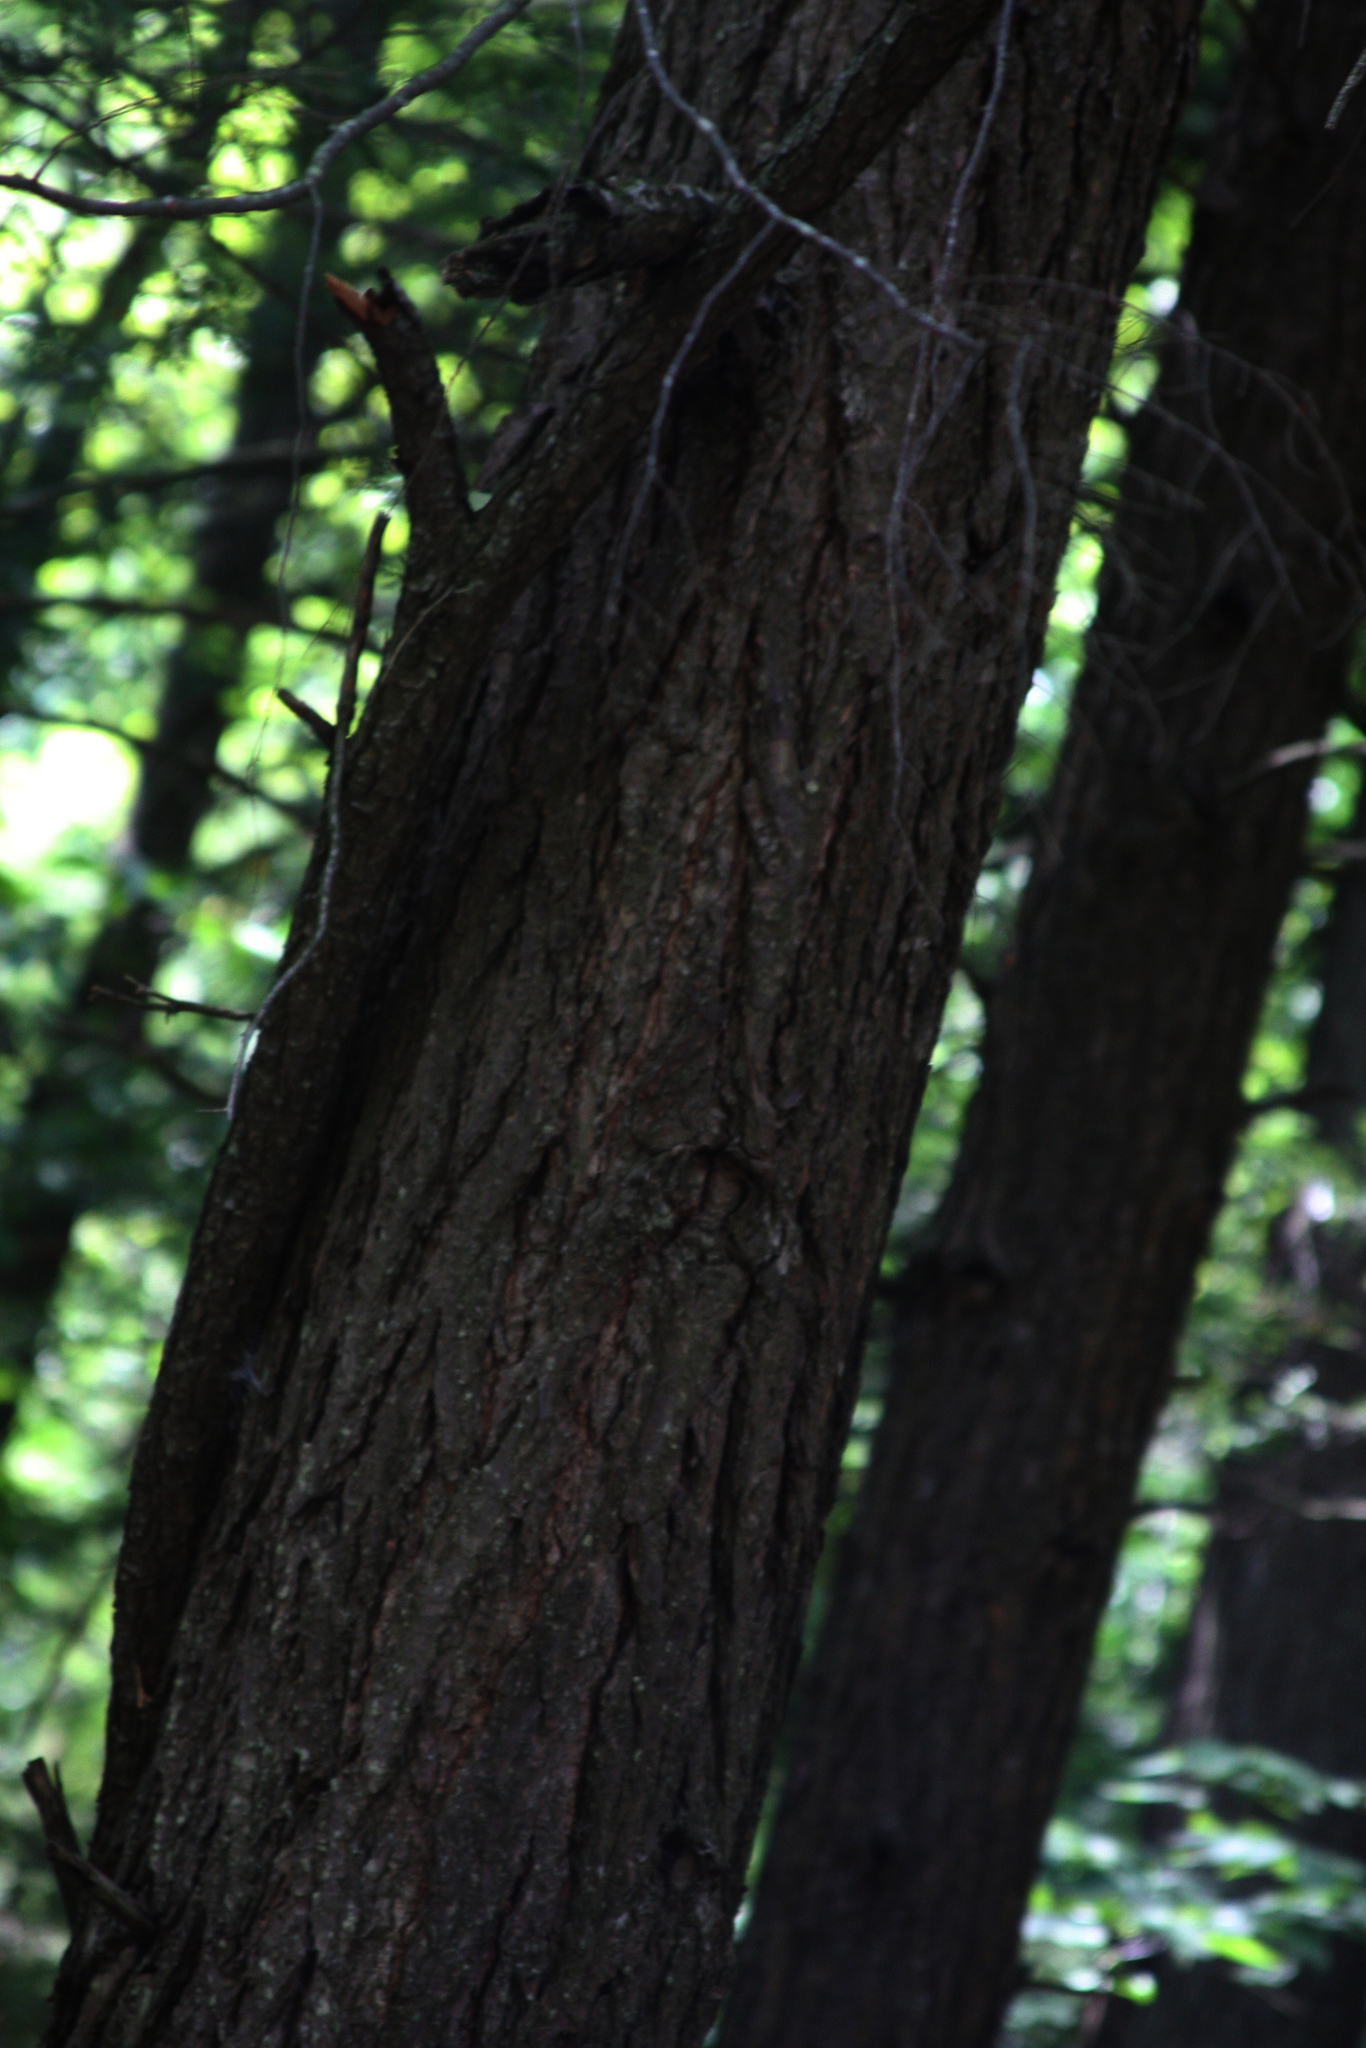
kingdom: Plantae
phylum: Tracheophyta
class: Pinopsida
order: Pinales
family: Pinaceae
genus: Tsuga
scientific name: Tsuga canadensis
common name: Eastern hemlock
